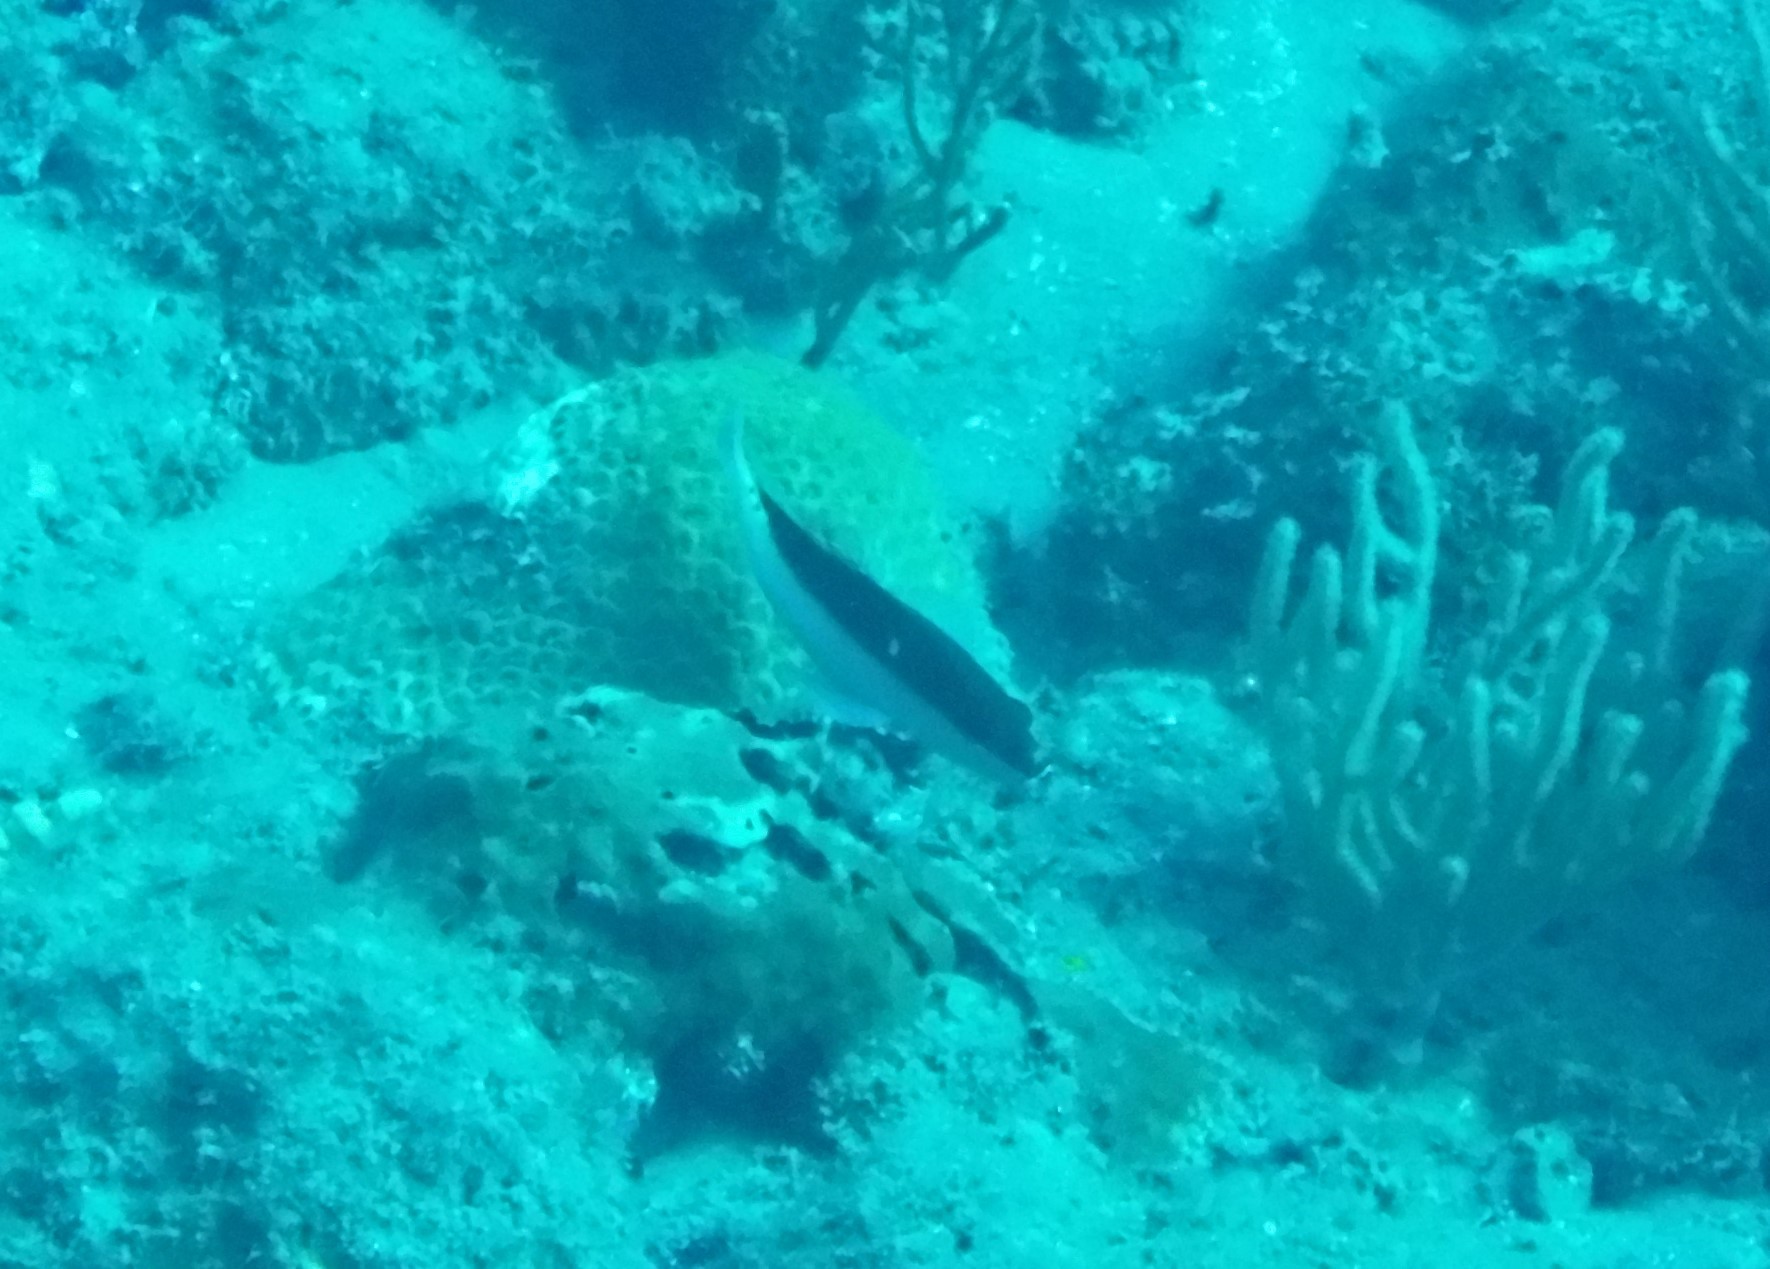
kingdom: Animalia
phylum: Chordata
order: Perciformes
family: Serranidae
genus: Cephalopholis
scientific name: Cephalopholis fulva
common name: Butterfish
